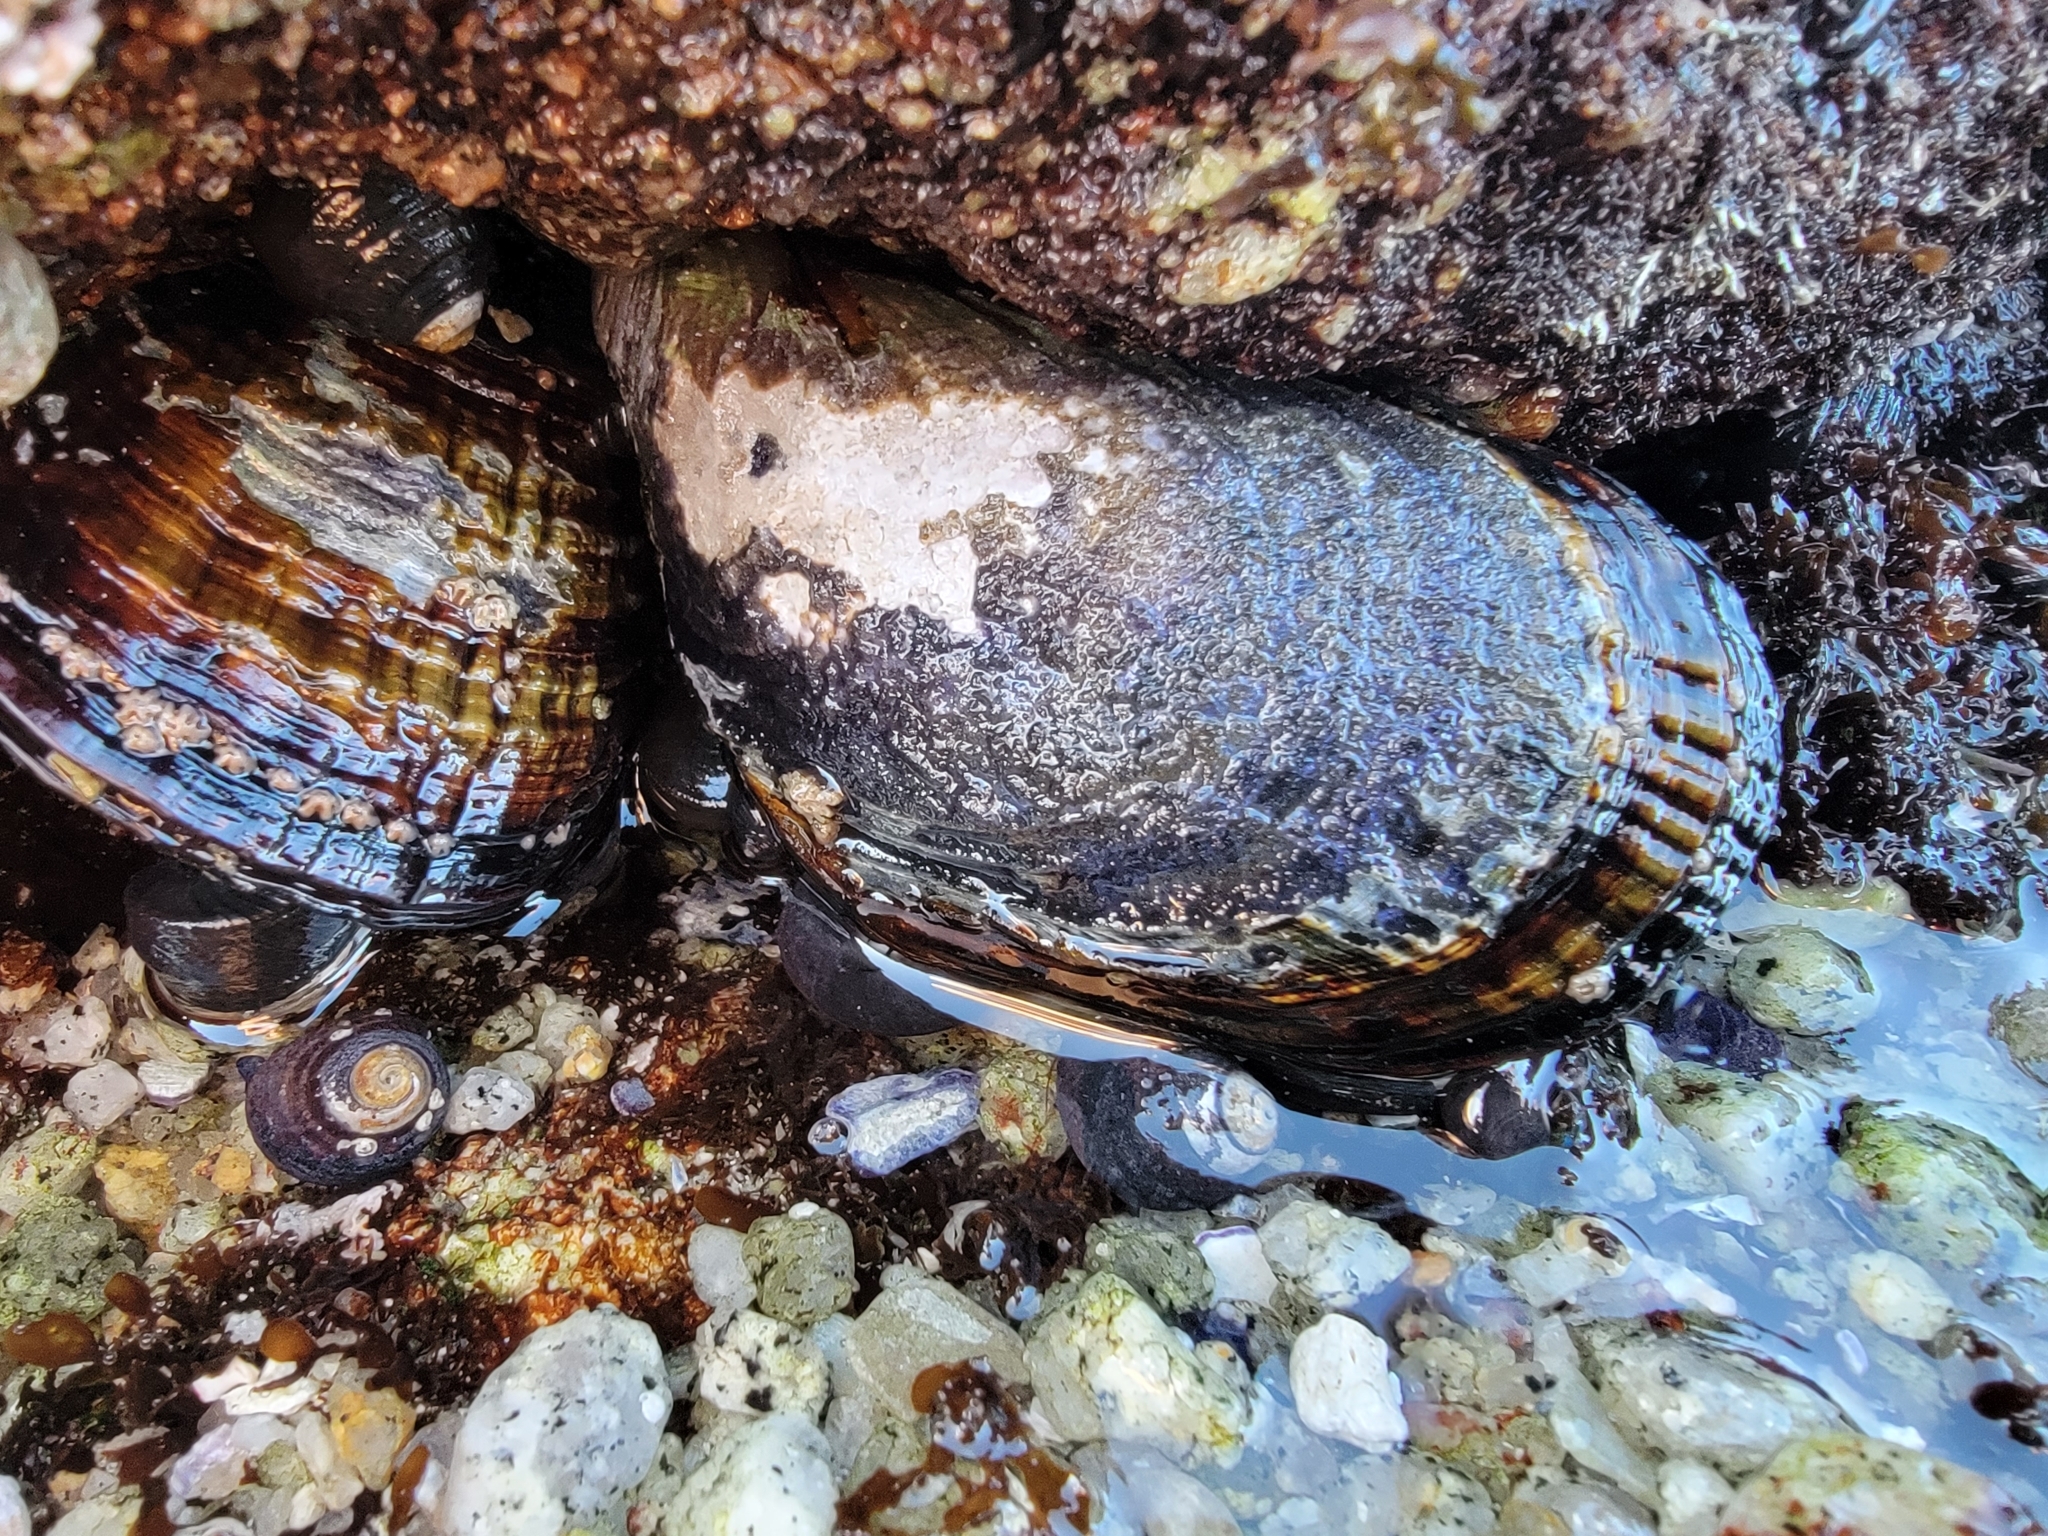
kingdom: Animalia
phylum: Mollusca
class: Bivalvia
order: Mytilida
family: Mytilidae
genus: Mytilus
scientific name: Mytilus californianus
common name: California mussel
